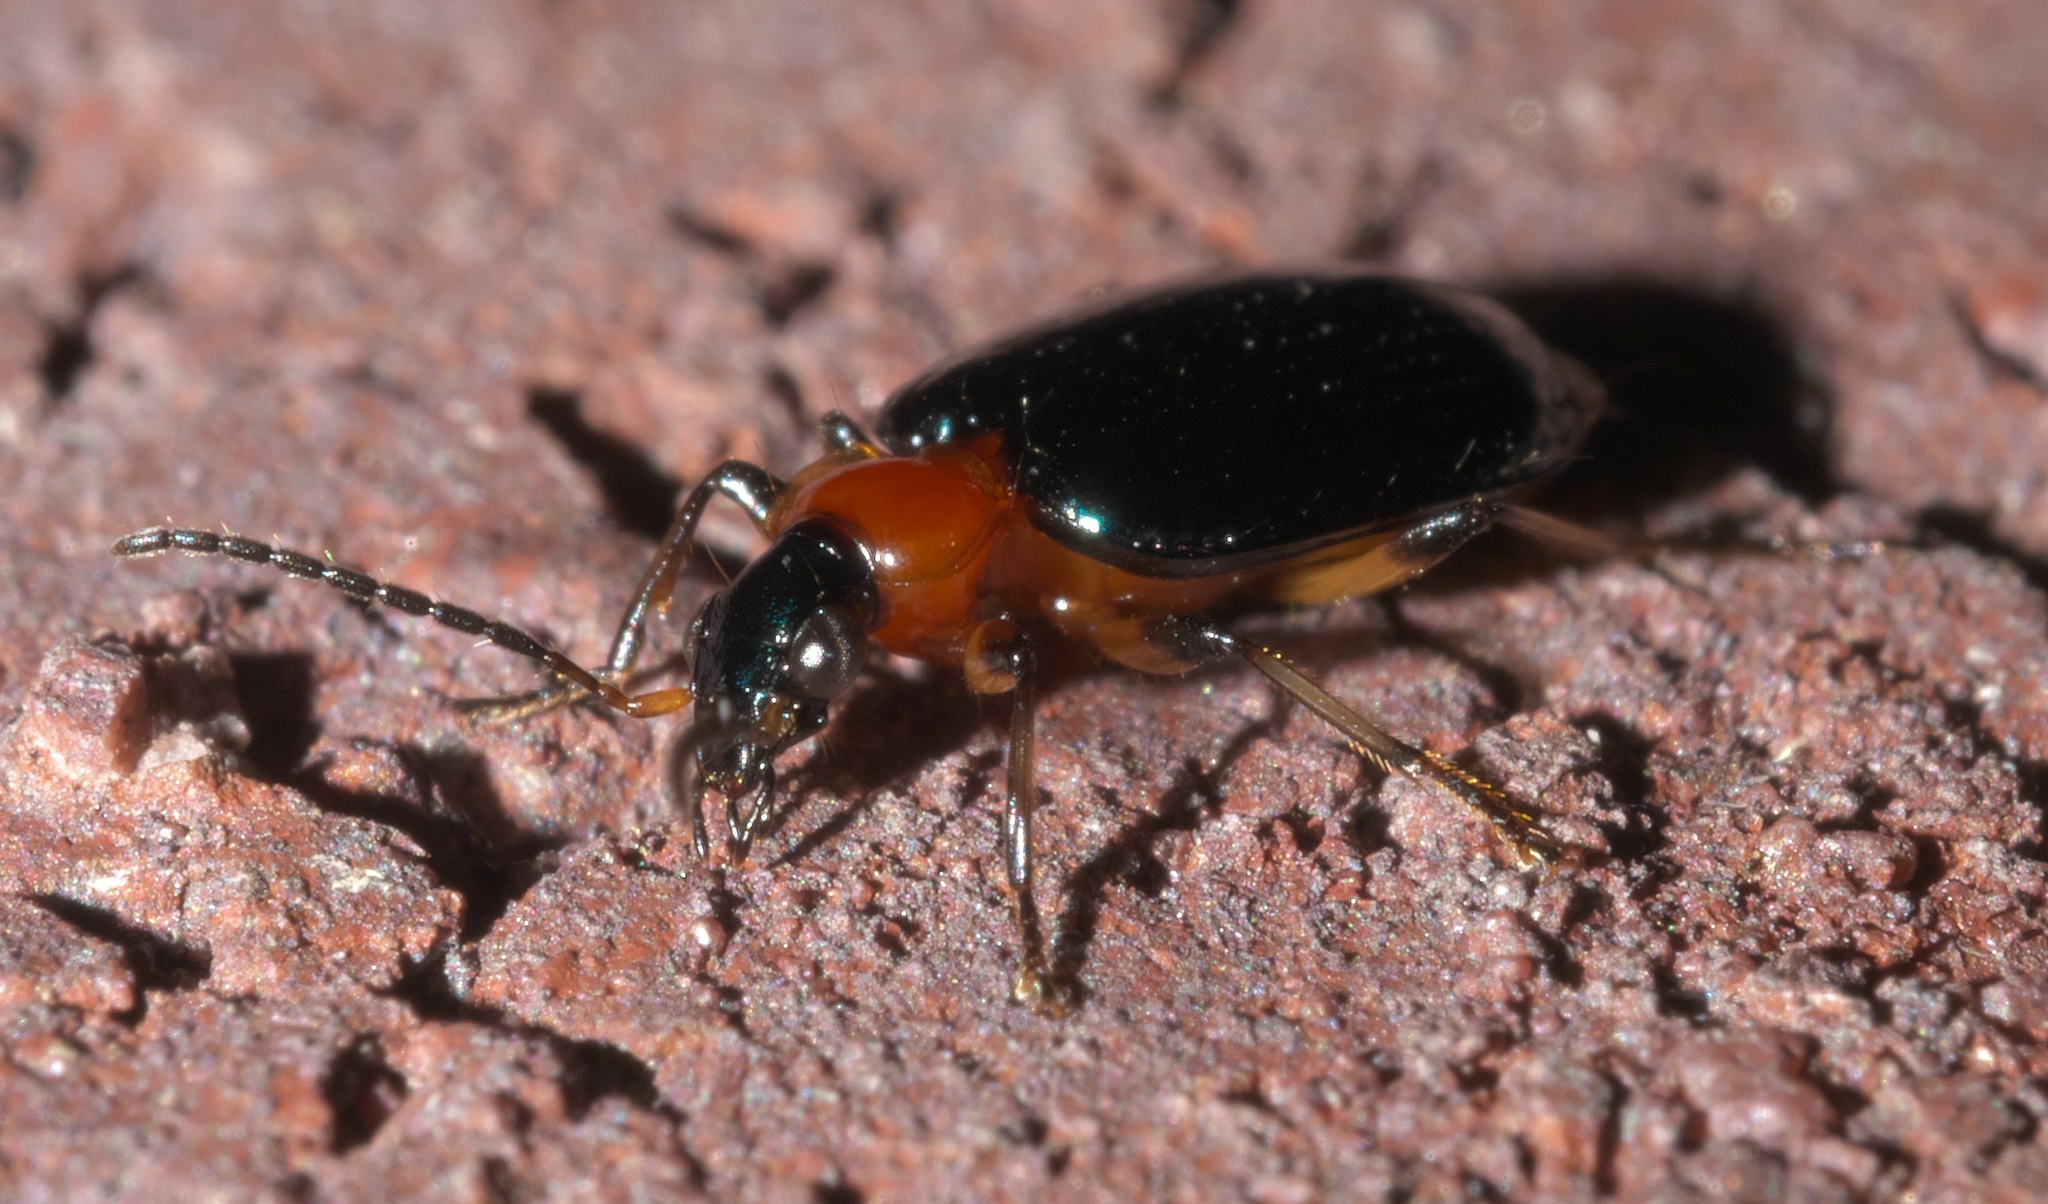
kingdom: Animalia
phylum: Arthropoda
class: Insecta
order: Coleoptera
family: Carabidae
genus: Lebia
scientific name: Lebia viridipennis
